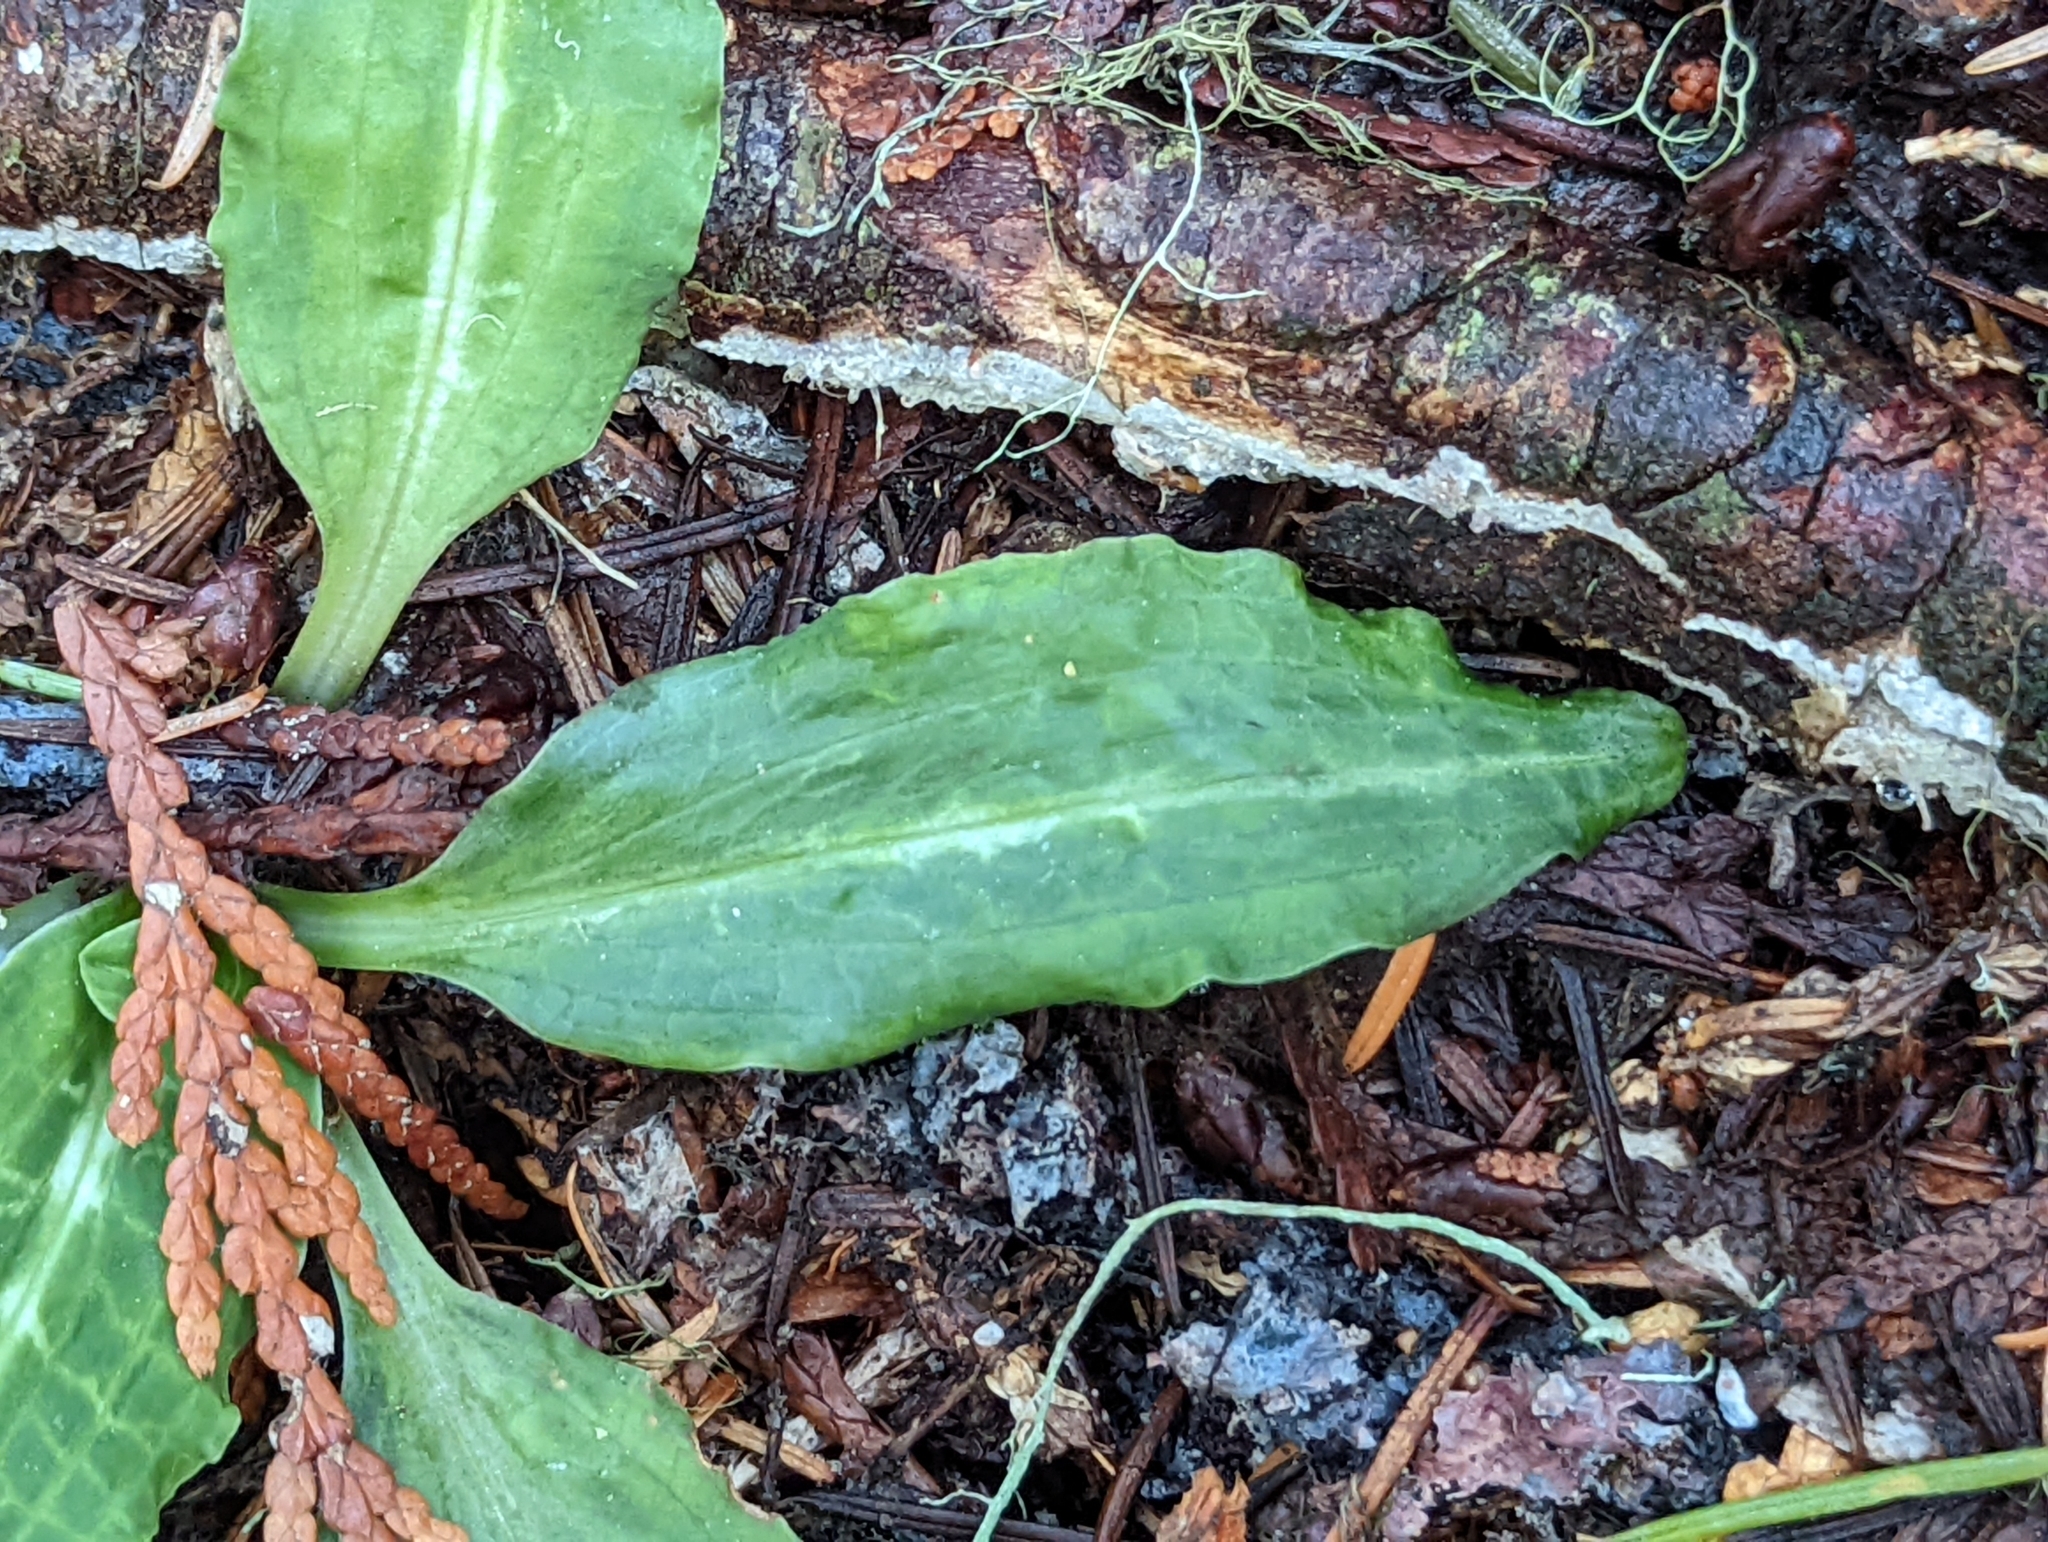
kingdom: Plantae
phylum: Tracheophyta
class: Liliopsida
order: Asparagales
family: Orchidaceae
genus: Goodyera
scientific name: Goodyera oblongifolia
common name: Giant rattlesnake-plantain
